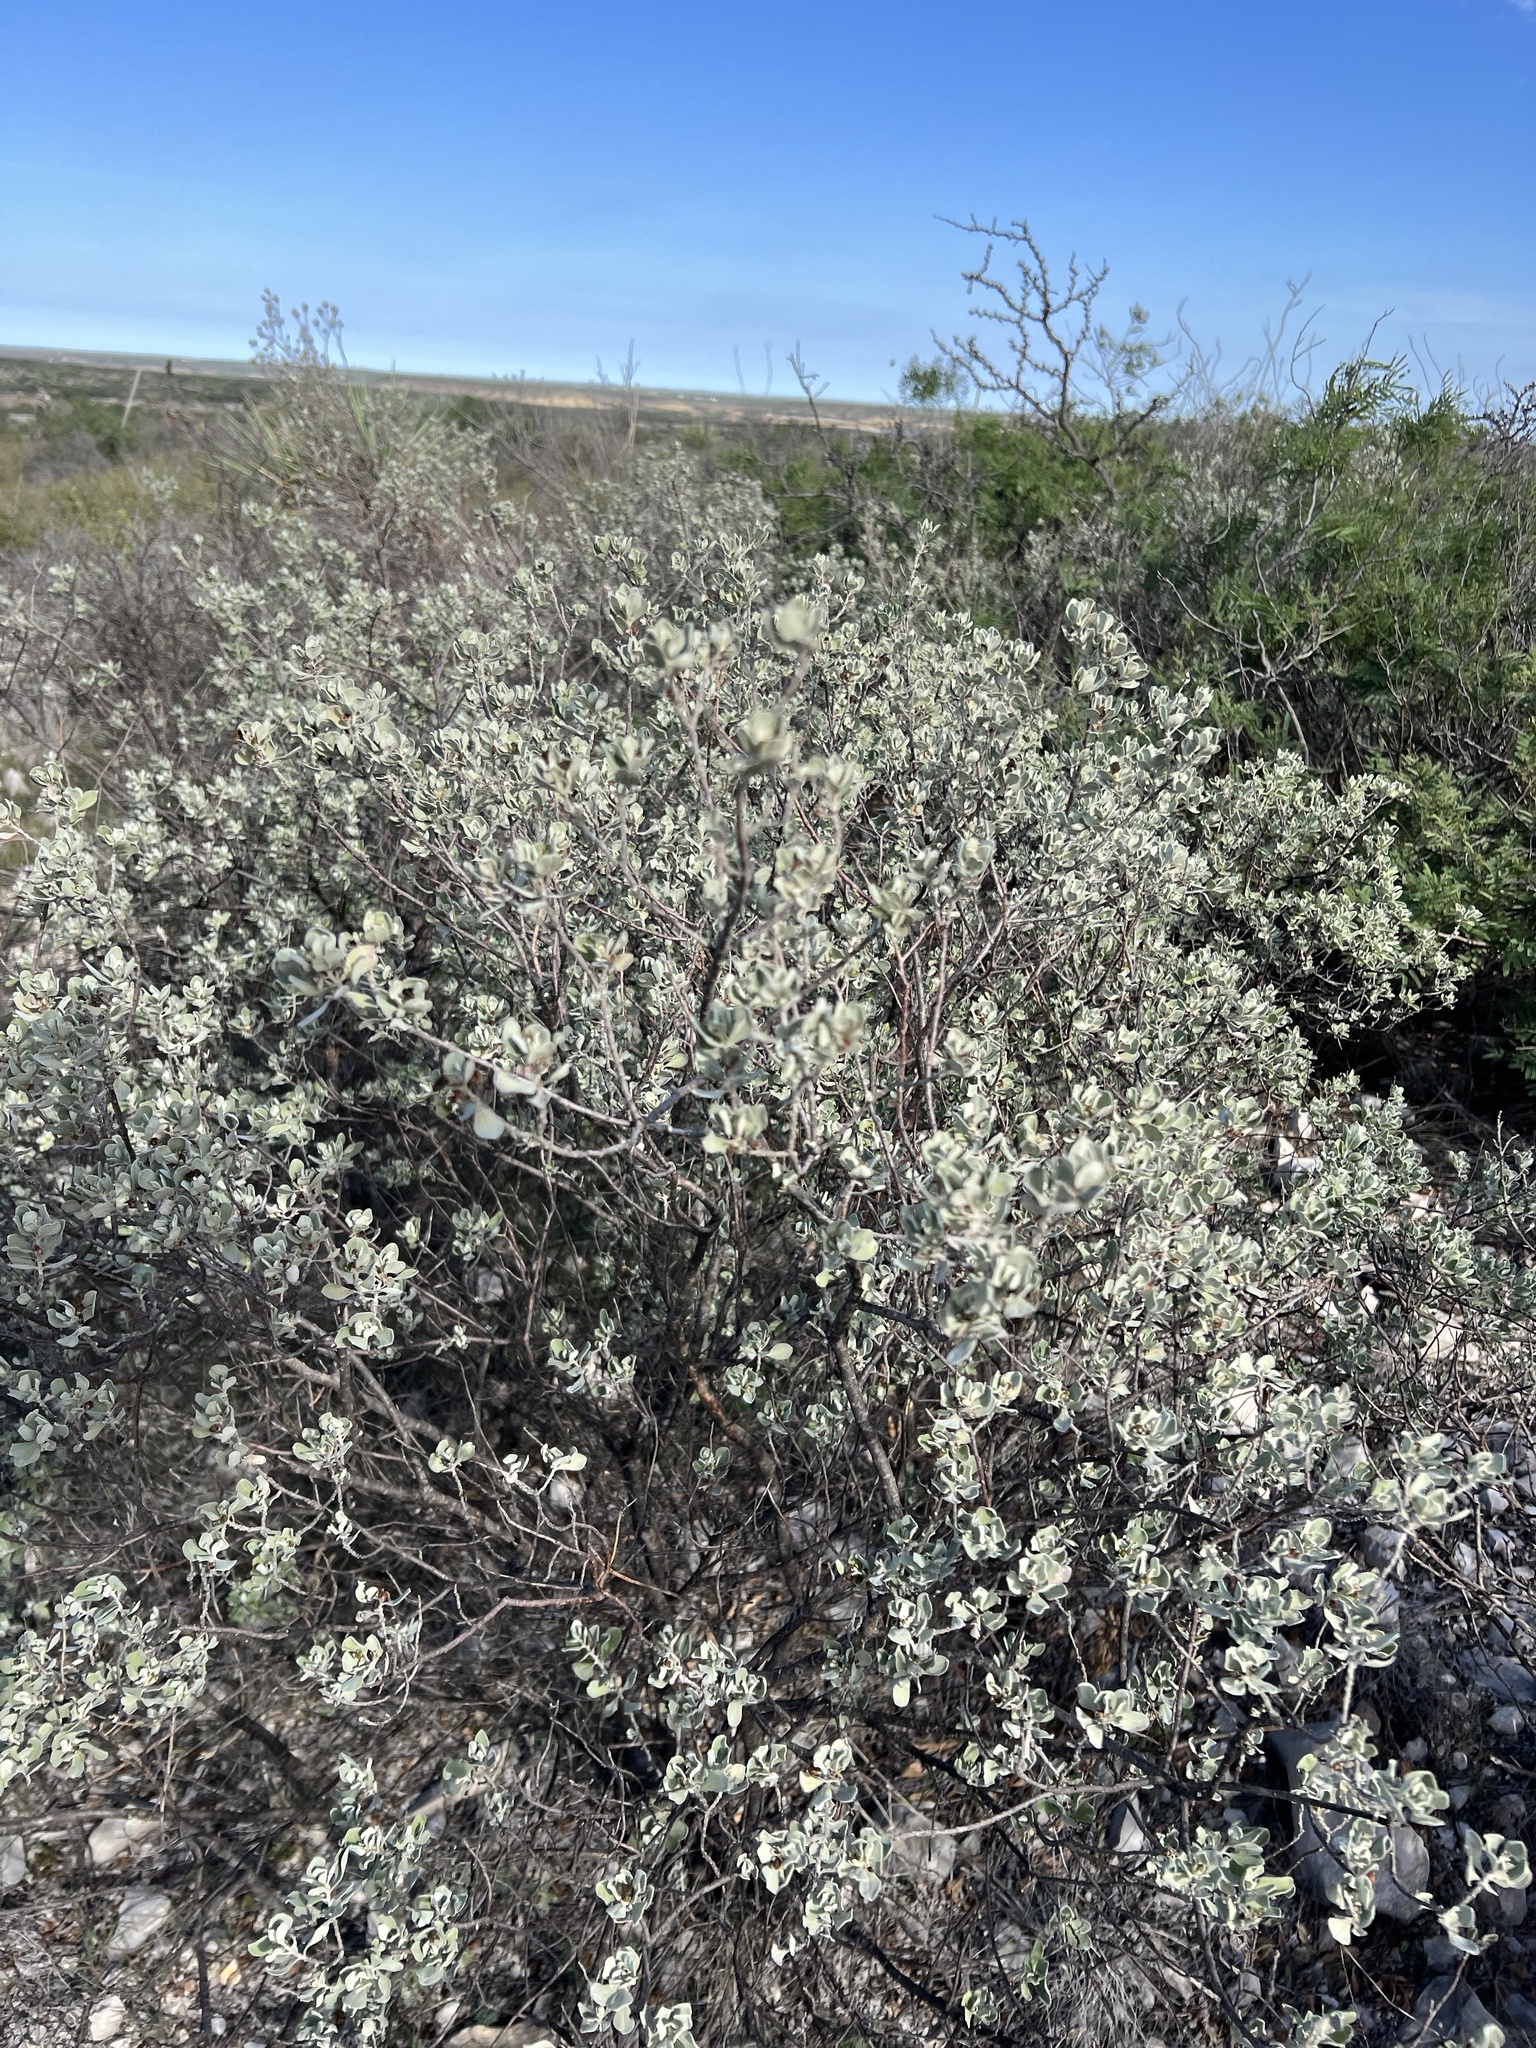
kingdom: Plantae
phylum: Tracheophyta
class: Magnoliopsida
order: Lamiales
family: Scrophulariaceae
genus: Leucophyllum
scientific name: Leucophyllum frutescens
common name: Texas silverleaf
